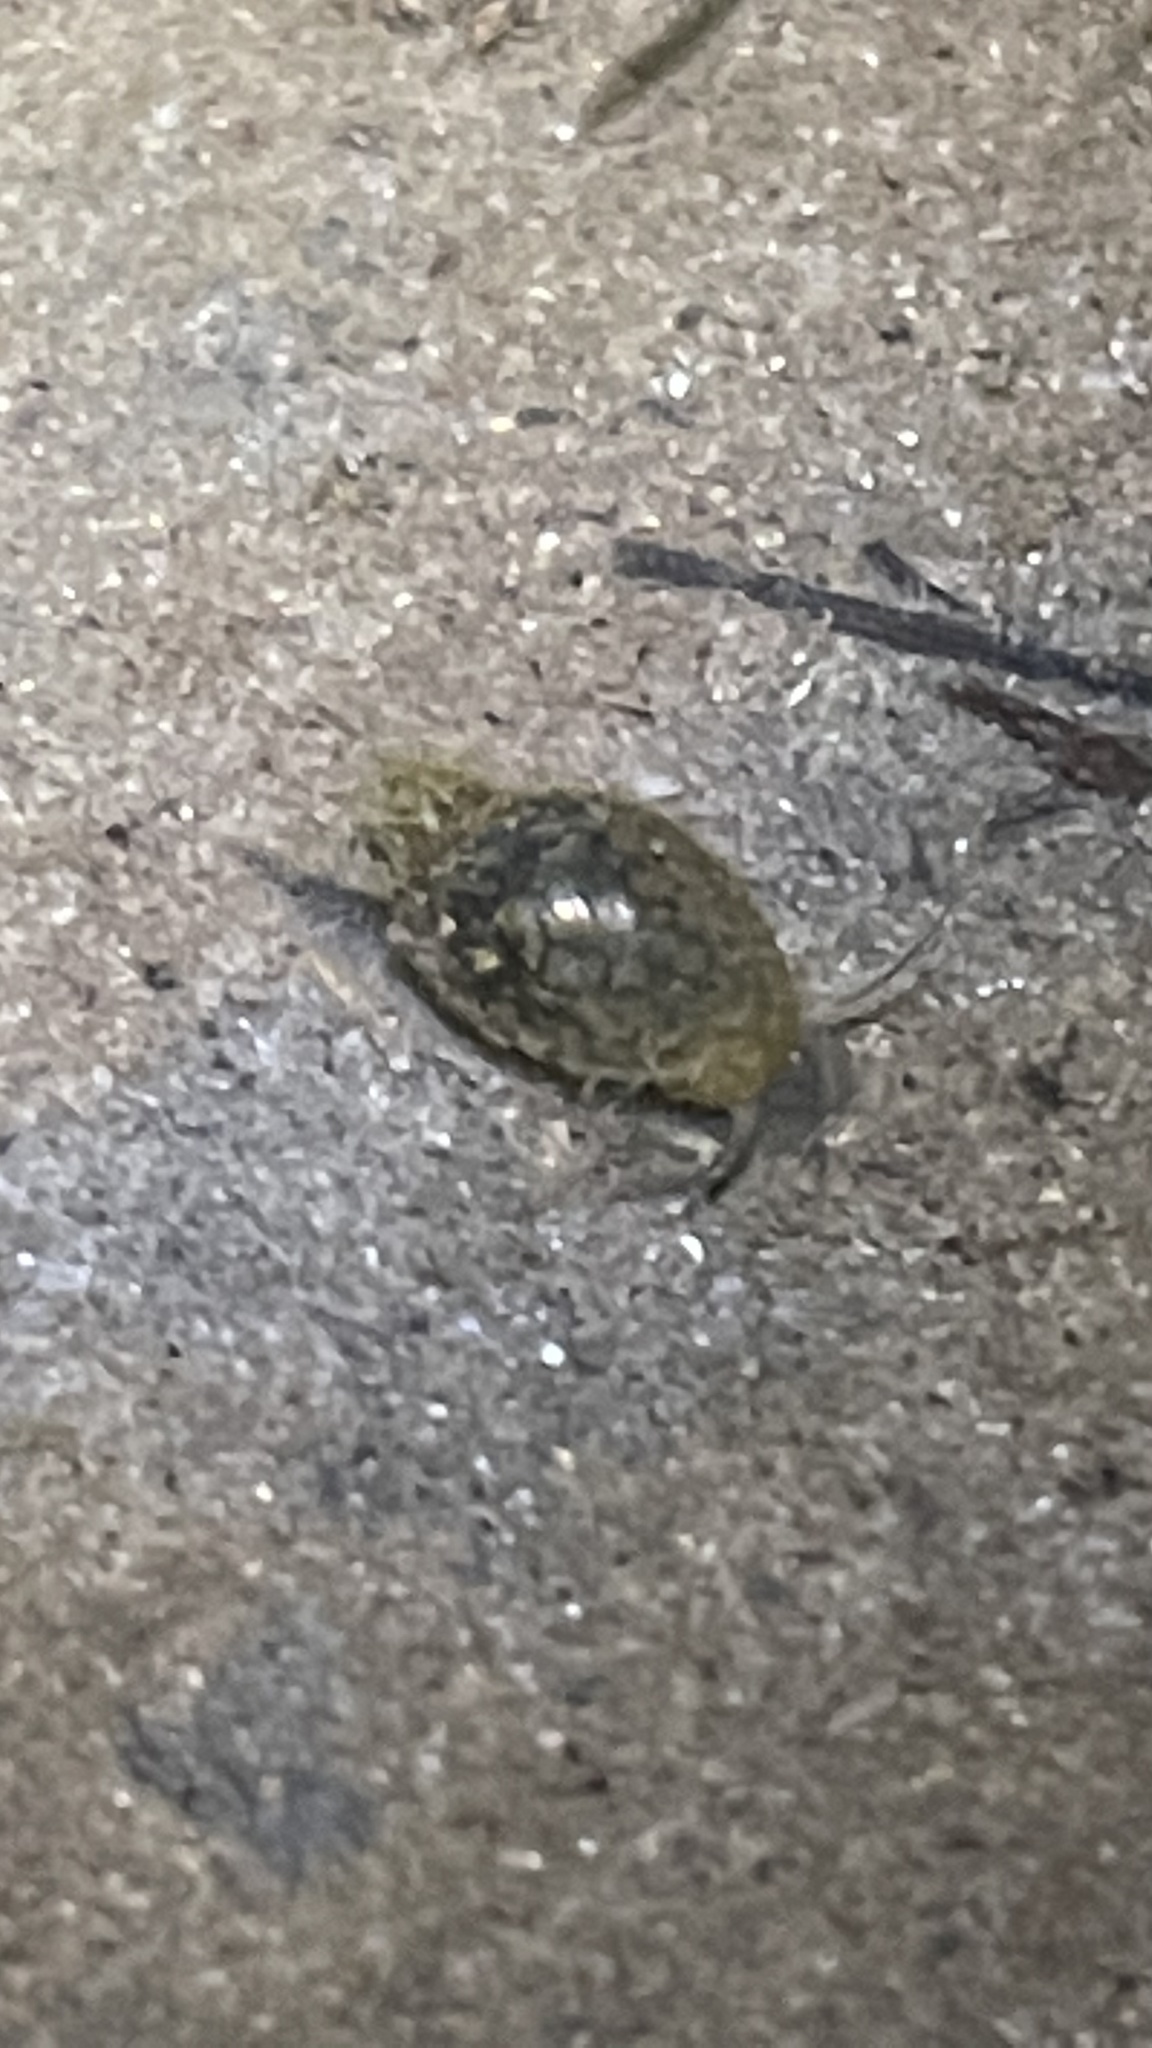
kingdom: Animalia
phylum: Mollusca
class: Gastropoda
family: Physidae
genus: Physella
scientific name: Physella acuta
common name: European physa
